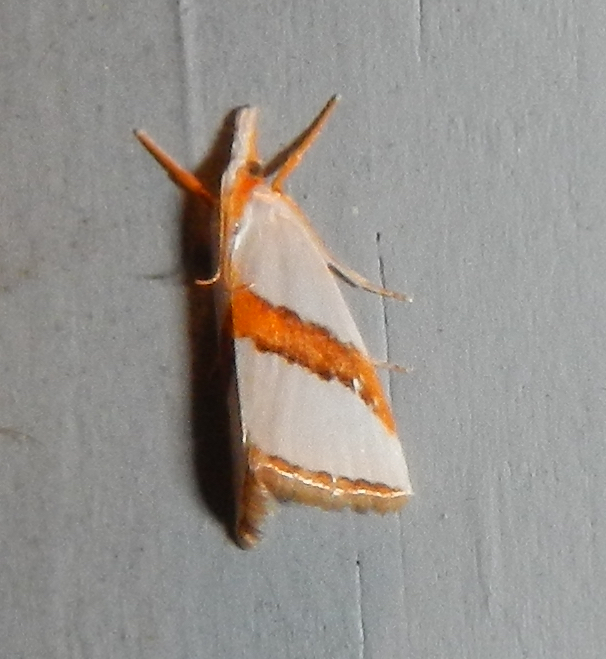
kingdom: Animalia
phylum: Arthropoda
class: Insecta
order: Lepidoptera
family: Crambidae
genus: Vaxi
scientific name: Vaxi critica
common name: Straight-lined vaxi moth
